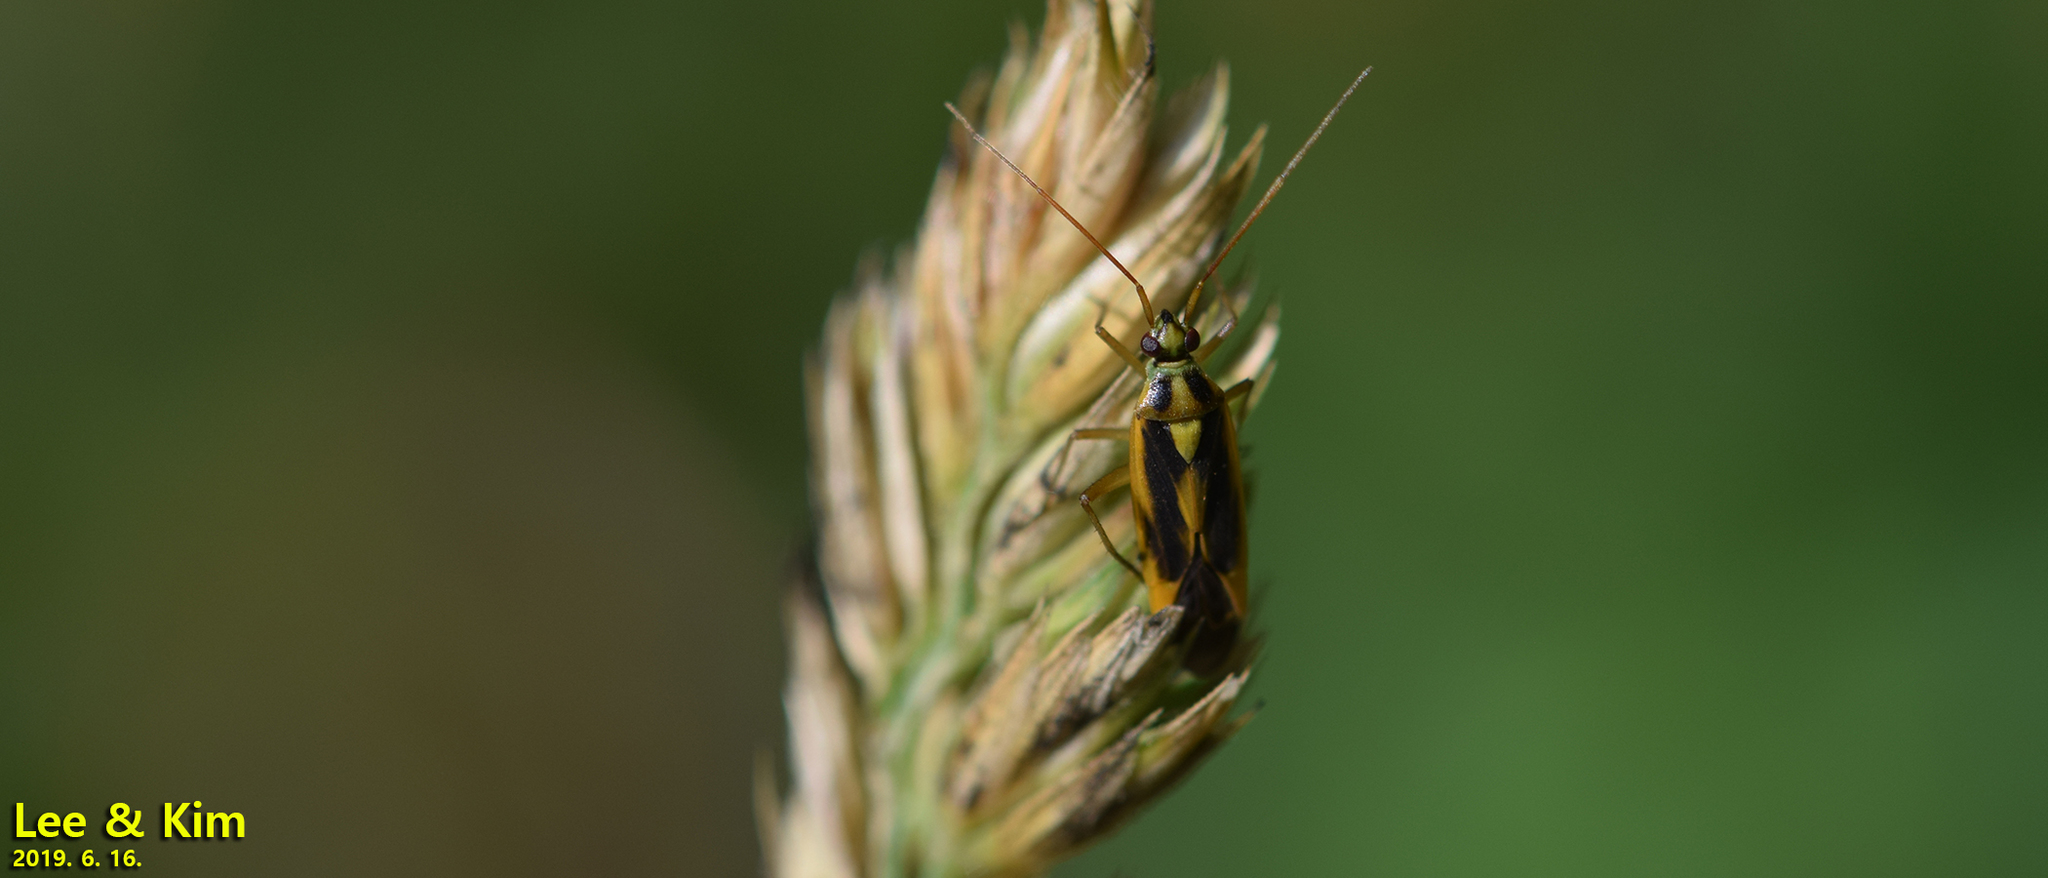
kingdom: Animalia
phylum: Arthropoda
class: Insecta
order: Hemiptera
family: Miridae
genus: Stenotus
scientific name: Stenotus binotatus
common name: Plant bug
